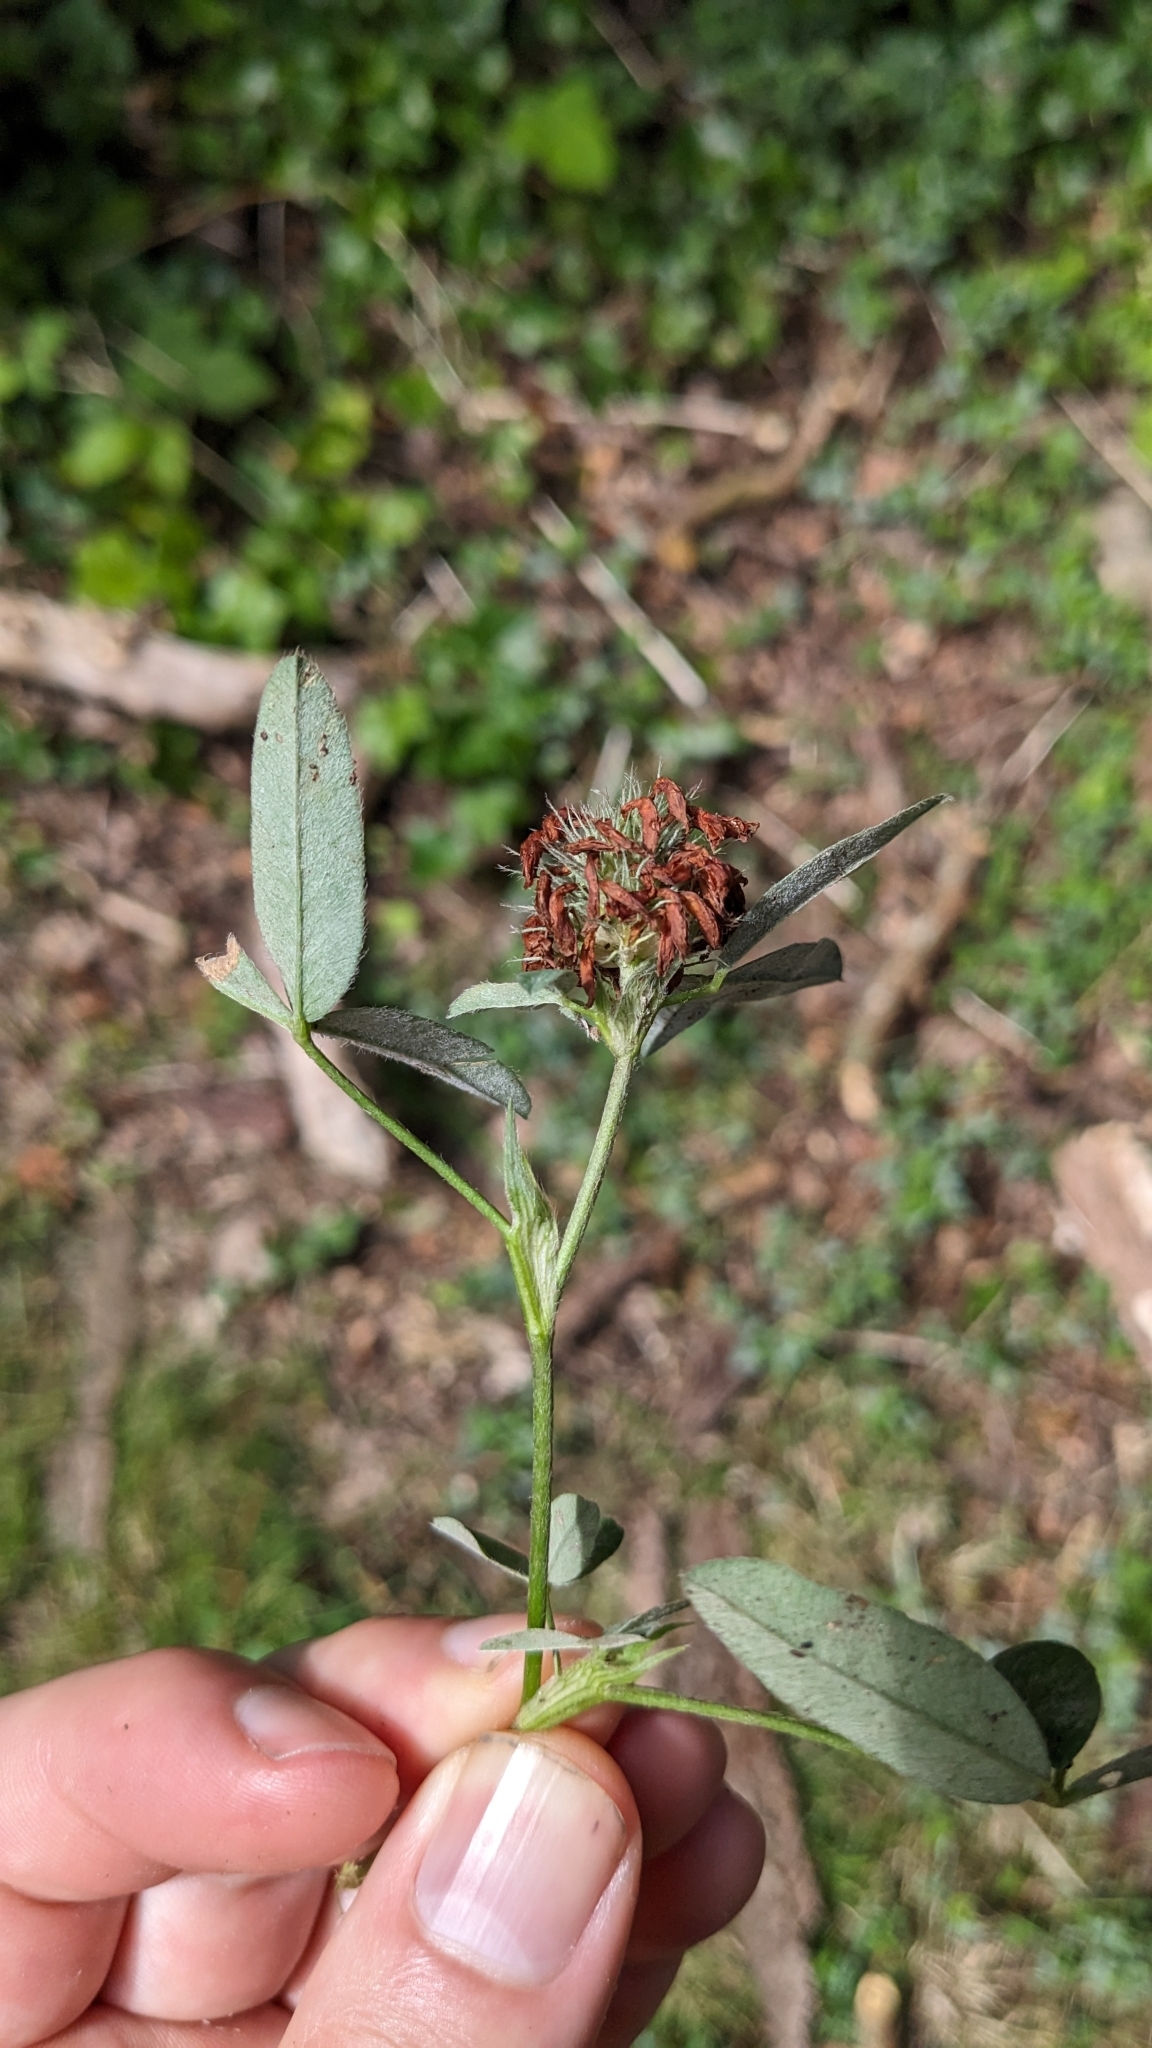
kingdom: Plantae
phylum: Tracheophyta
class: Magnoliopsida
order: Fabales
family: Fabaceae
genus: Trifolium
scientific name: Trifolium medium
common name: Zigzag clover
